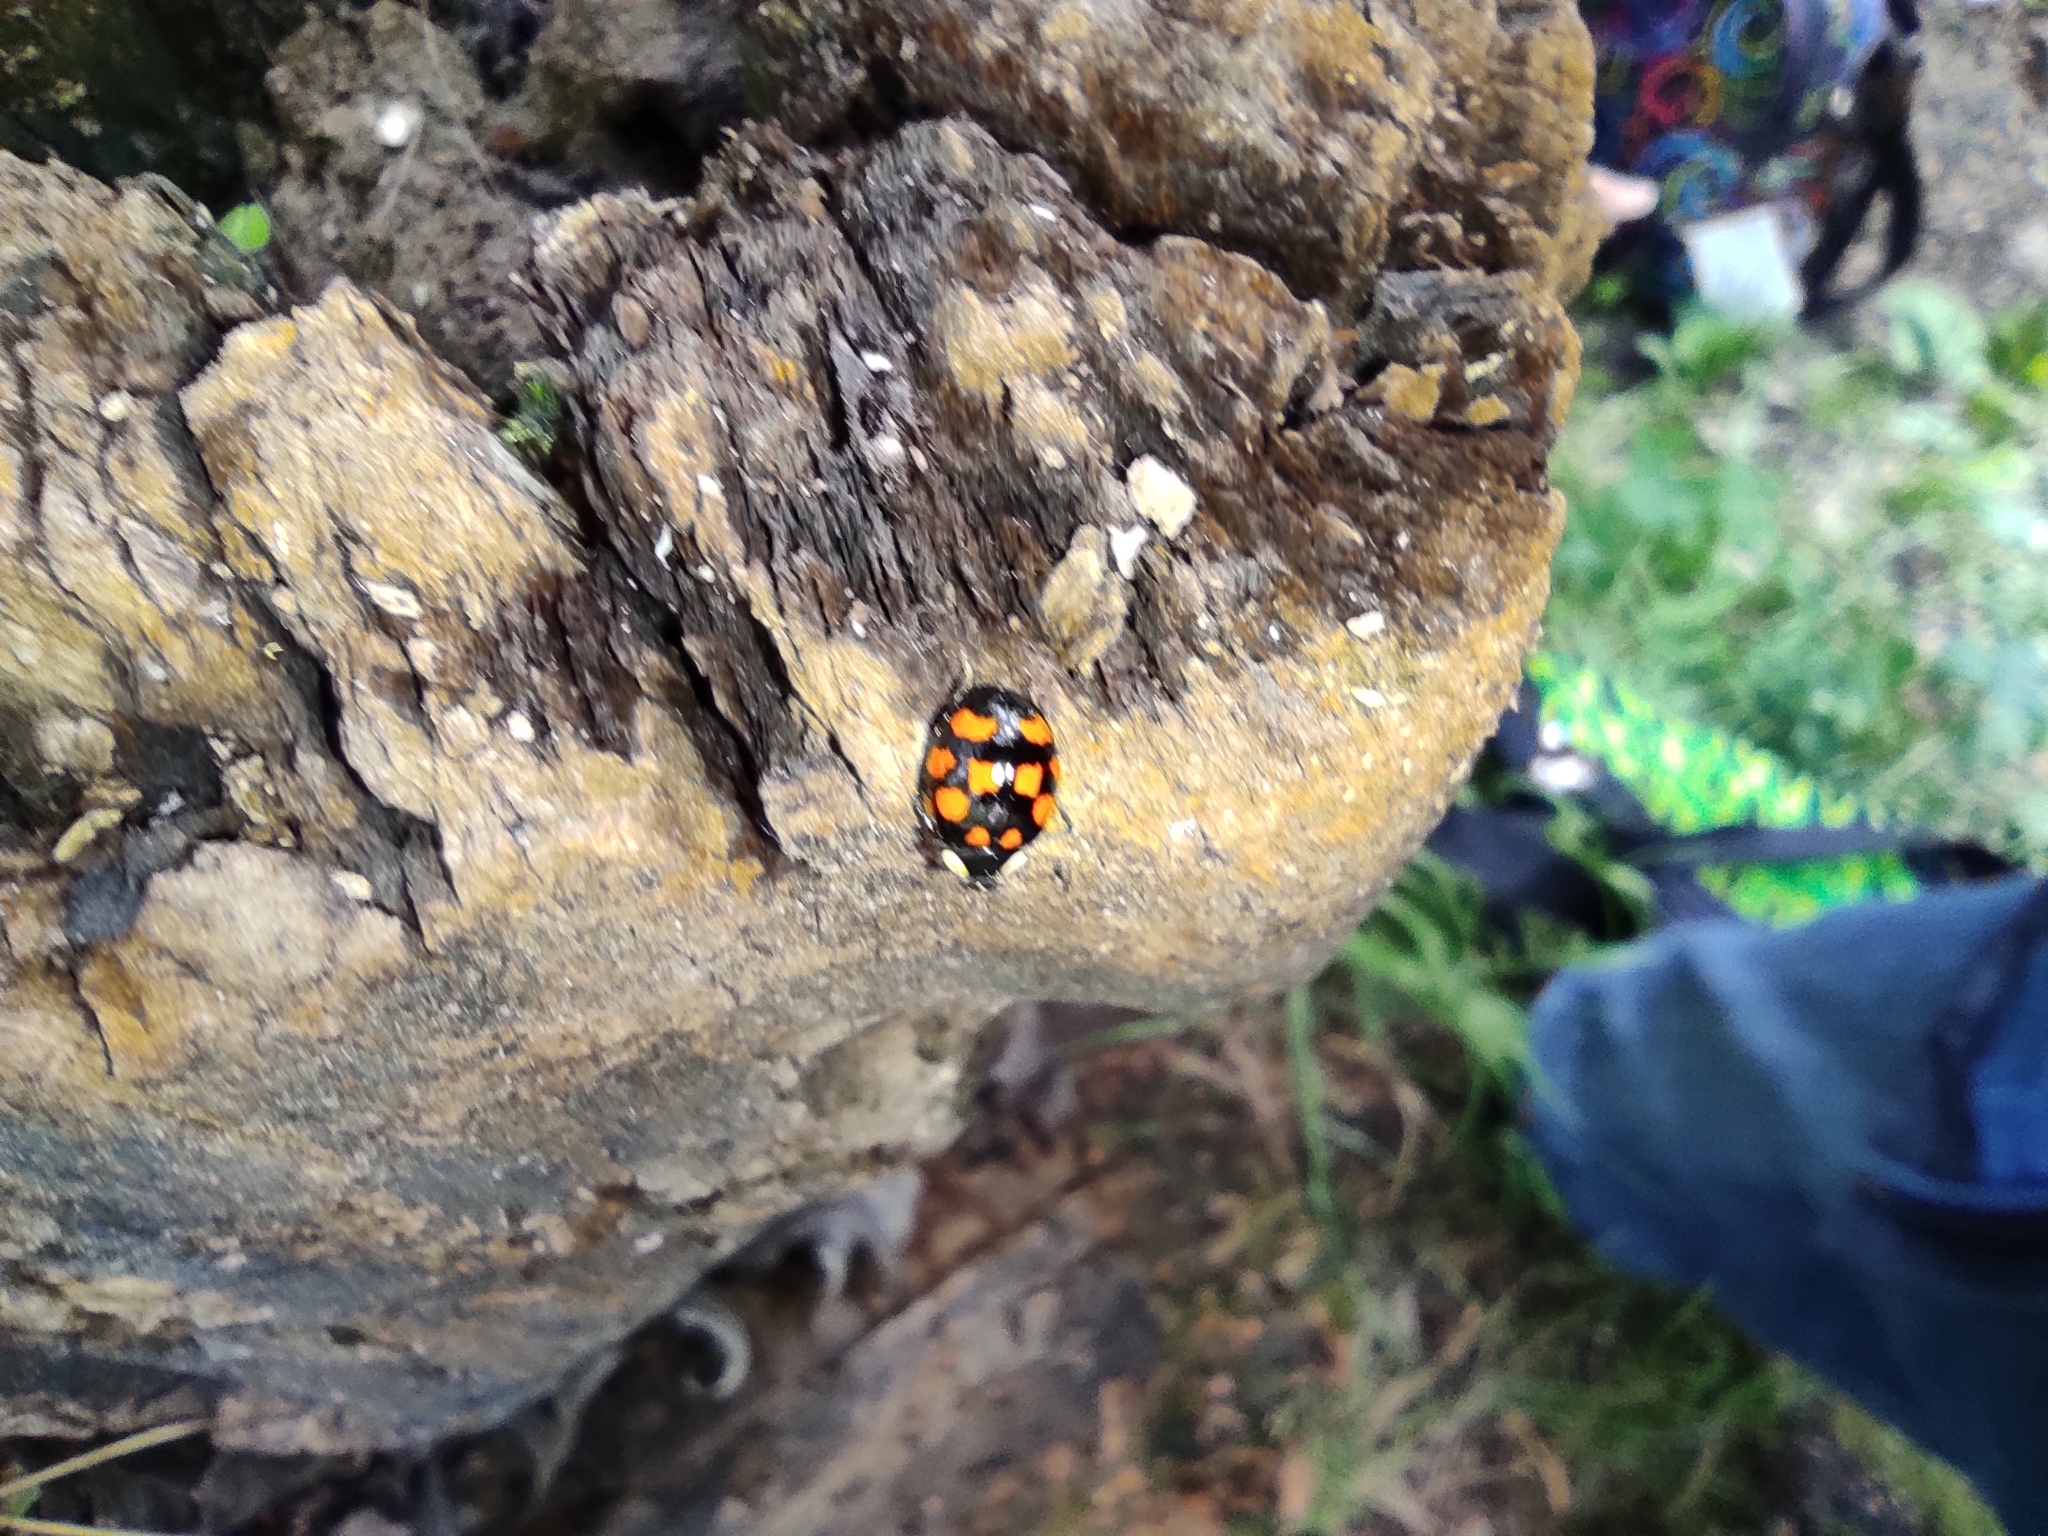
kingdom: Animalia
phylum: Arthropoda
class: Insecta
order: Coleoptera
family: Coccinellidae
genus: Harmonia
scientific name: Harmonia axyridis
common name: Harlequin ladybird
